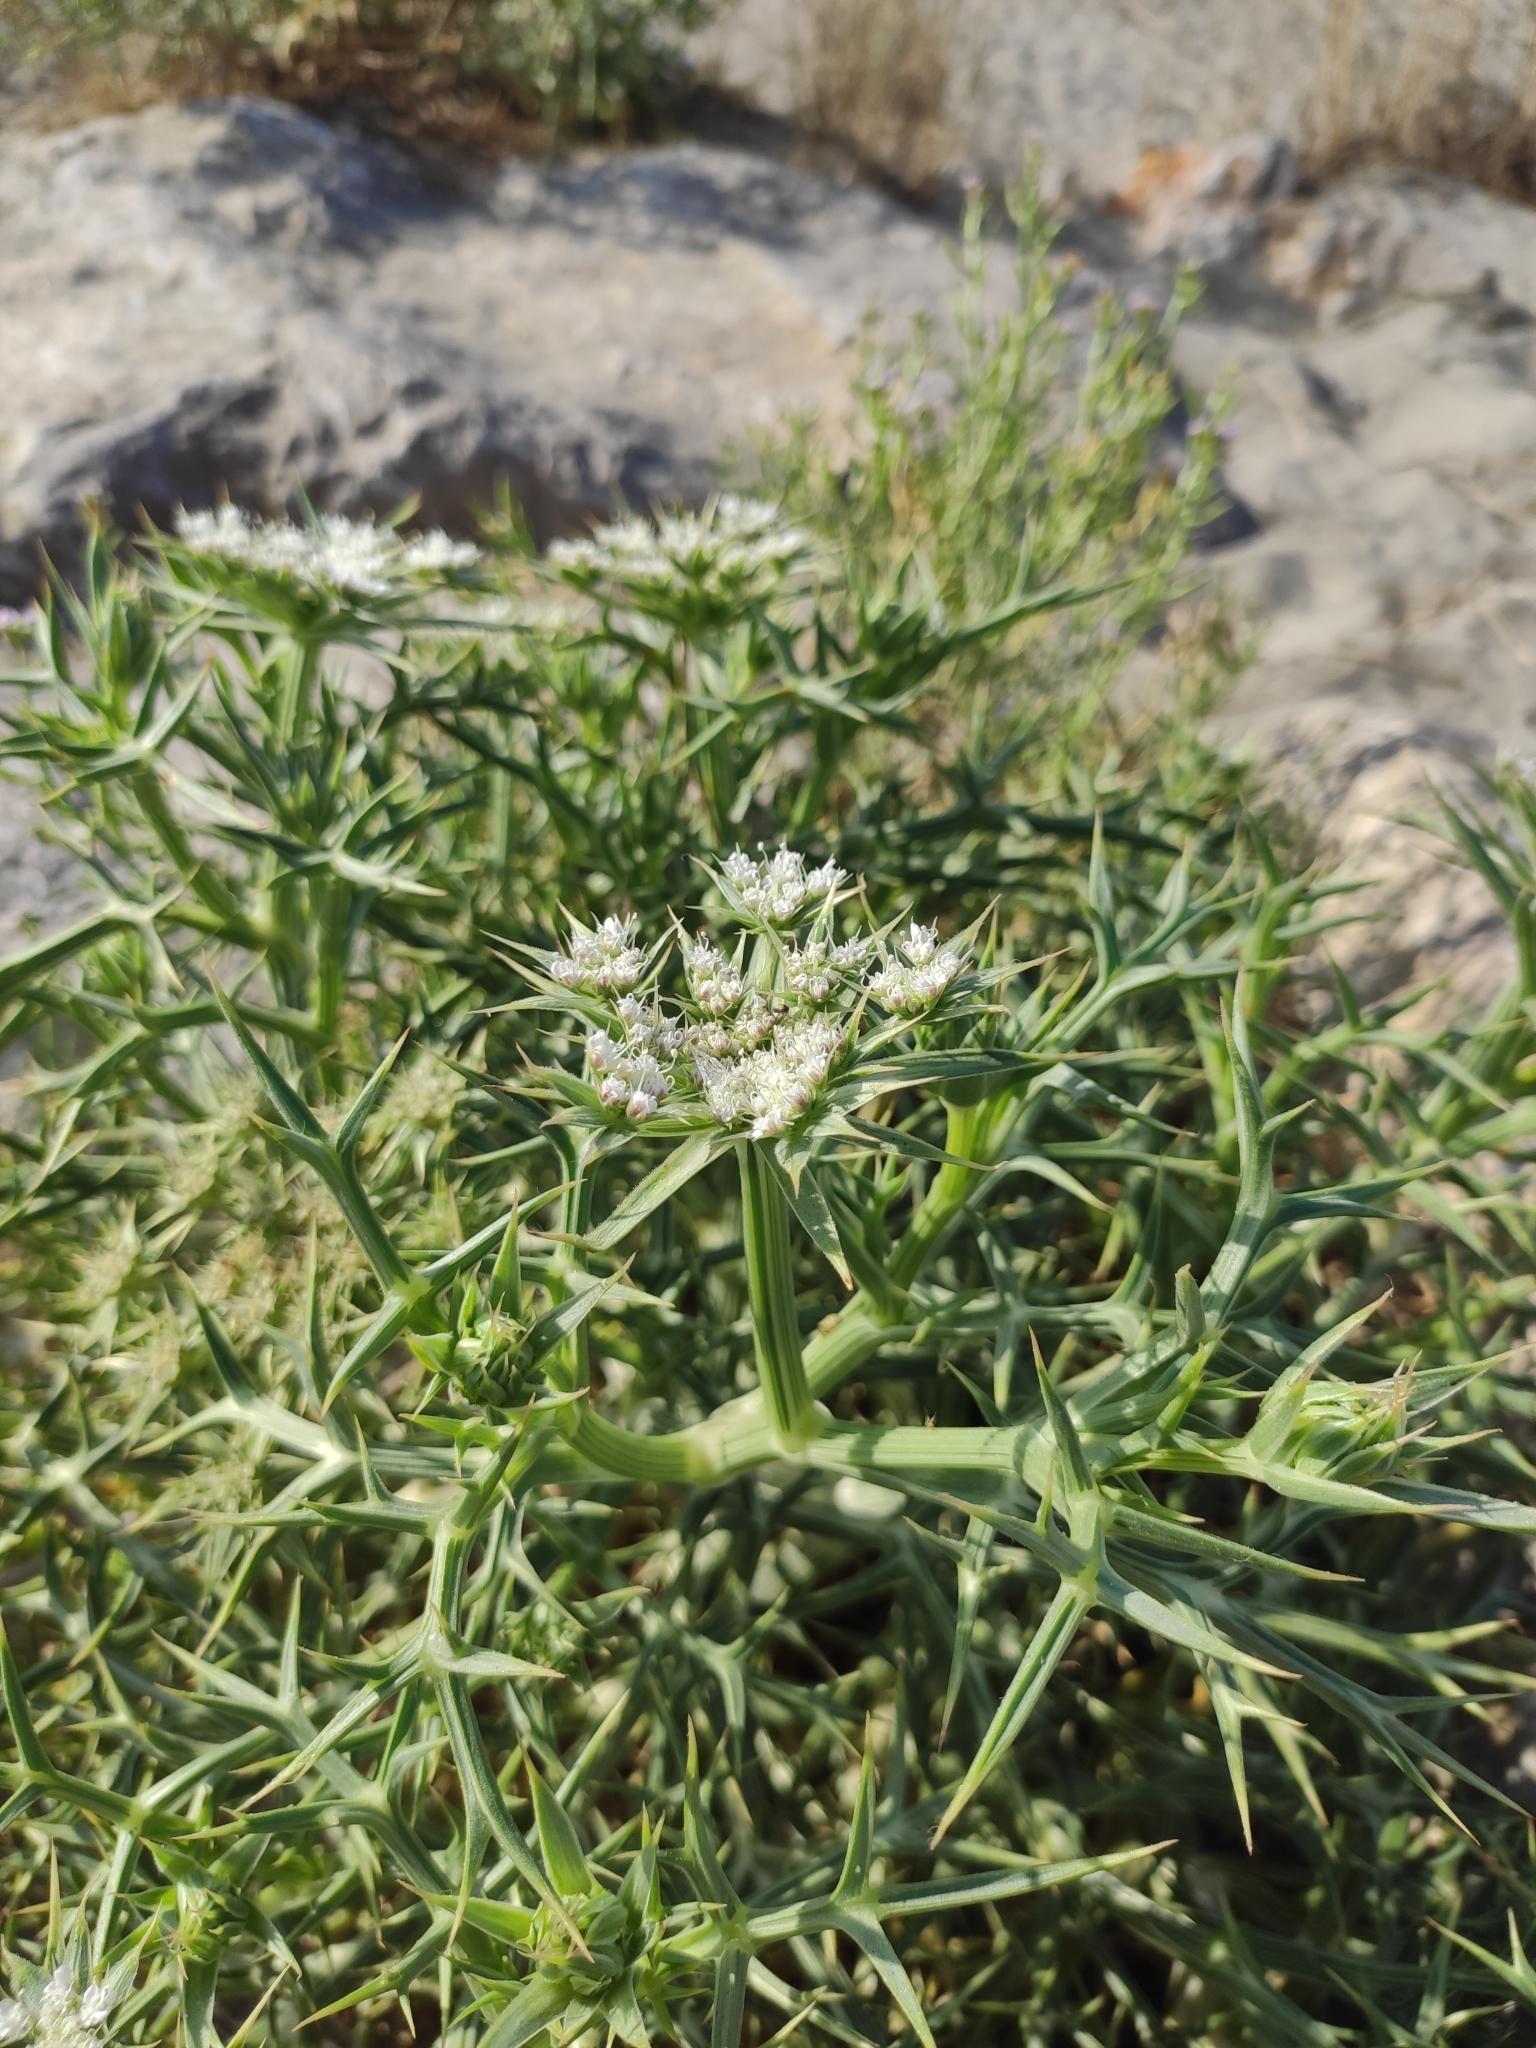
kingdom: Plantae
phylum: Tracheophyta
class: Magnoliopsida
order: Apiales
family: Apiaceae
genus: Echinophora
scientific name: Echinophora spinosa
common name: Prickly samphire
